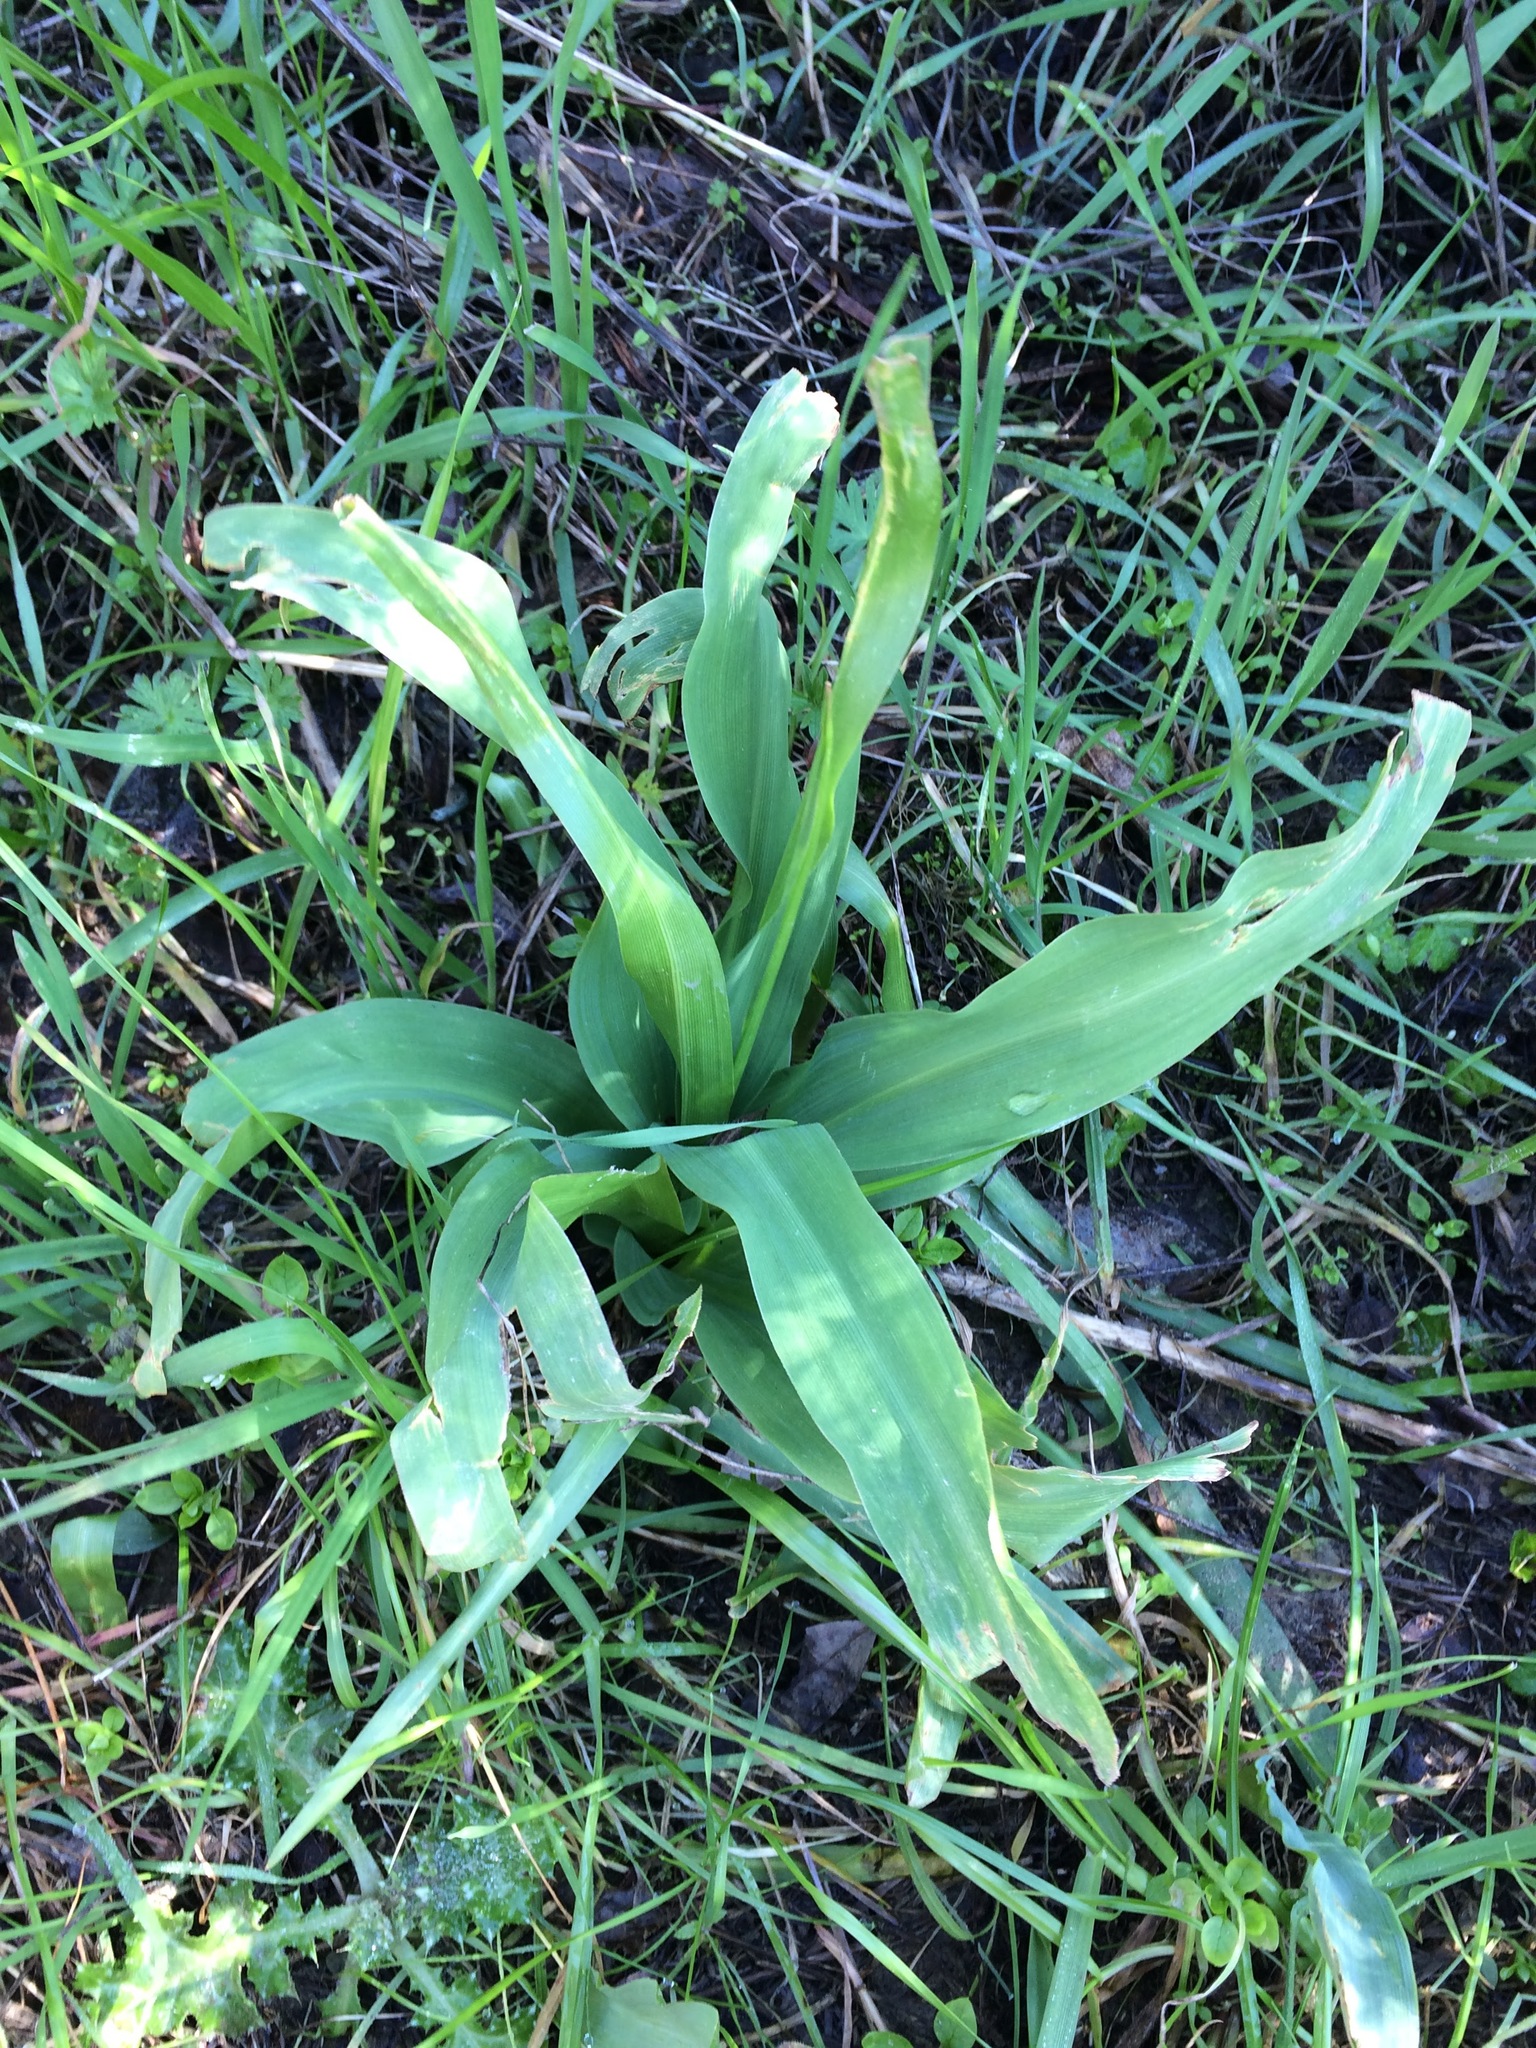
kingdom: Plantae
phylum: Tracheophyta
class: Liliopsida
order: Asparagales
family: Asparagaceae
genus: Chlorogalum
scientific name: Chlorogalum pomeridianum
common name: Amole
